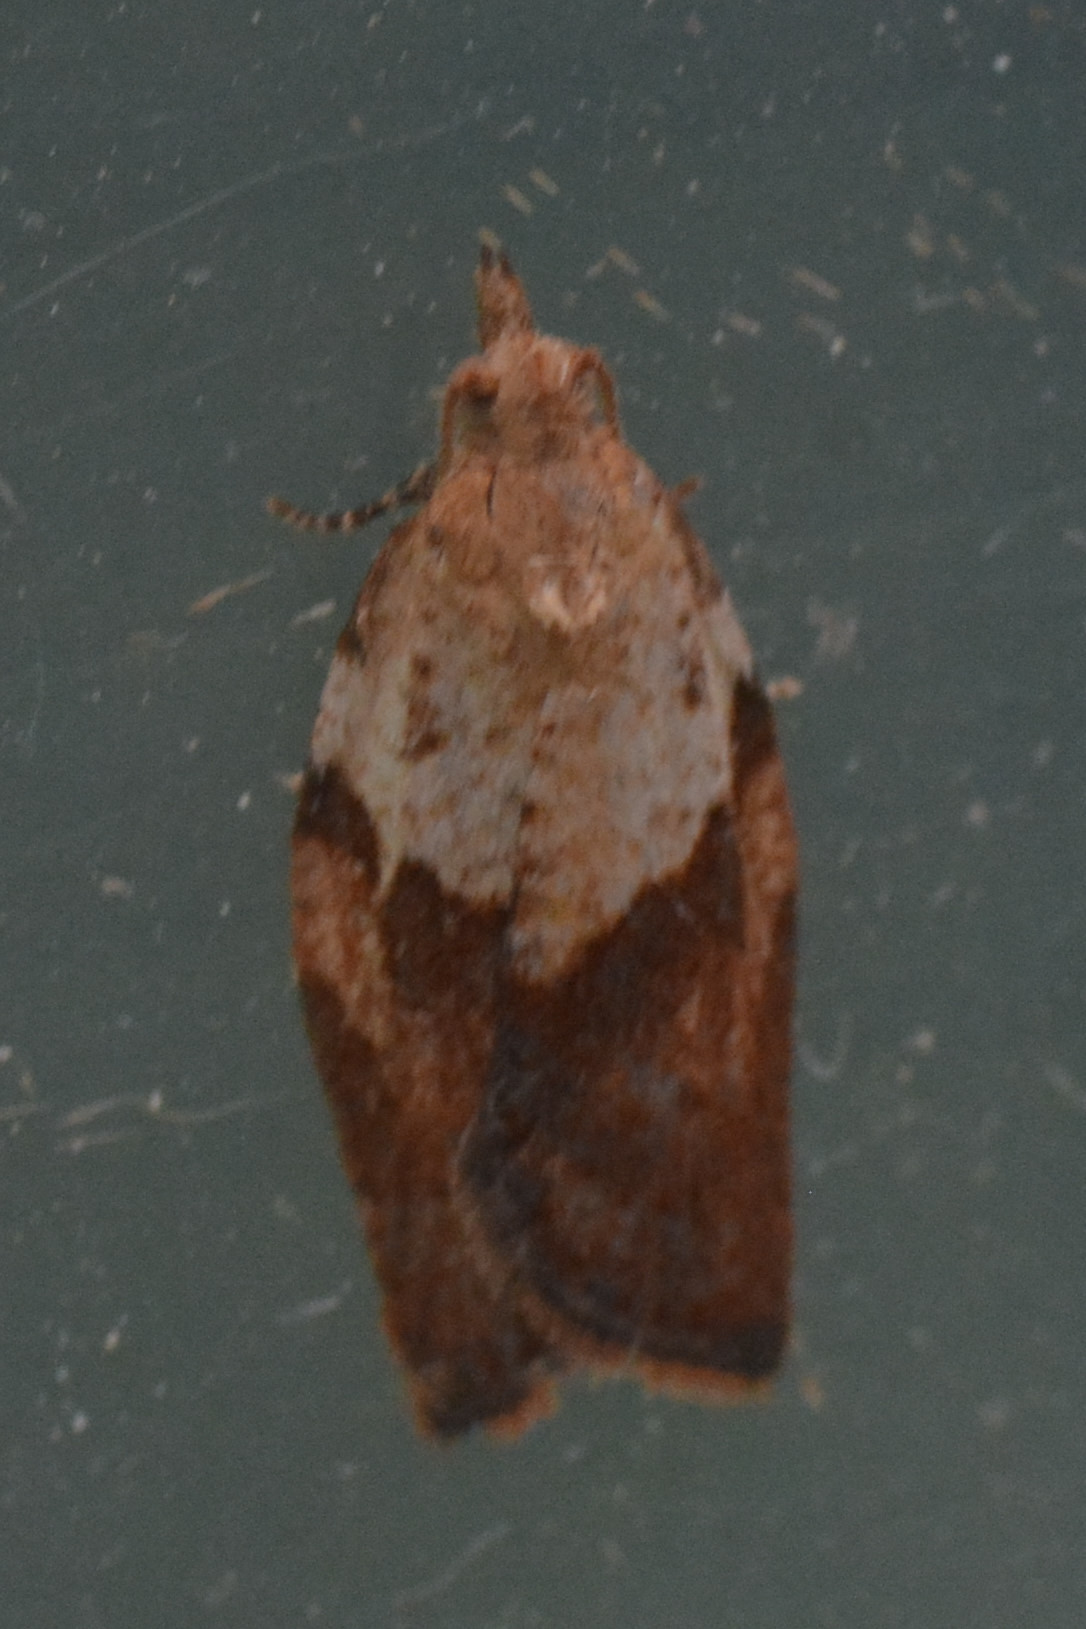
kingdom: Animalia
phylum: Arthropoda
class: Insecta
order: Lepidoptera
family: Tortricidae
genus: Epiphyas
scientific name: Epiphyas postvittana
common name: Light brown apple moth
